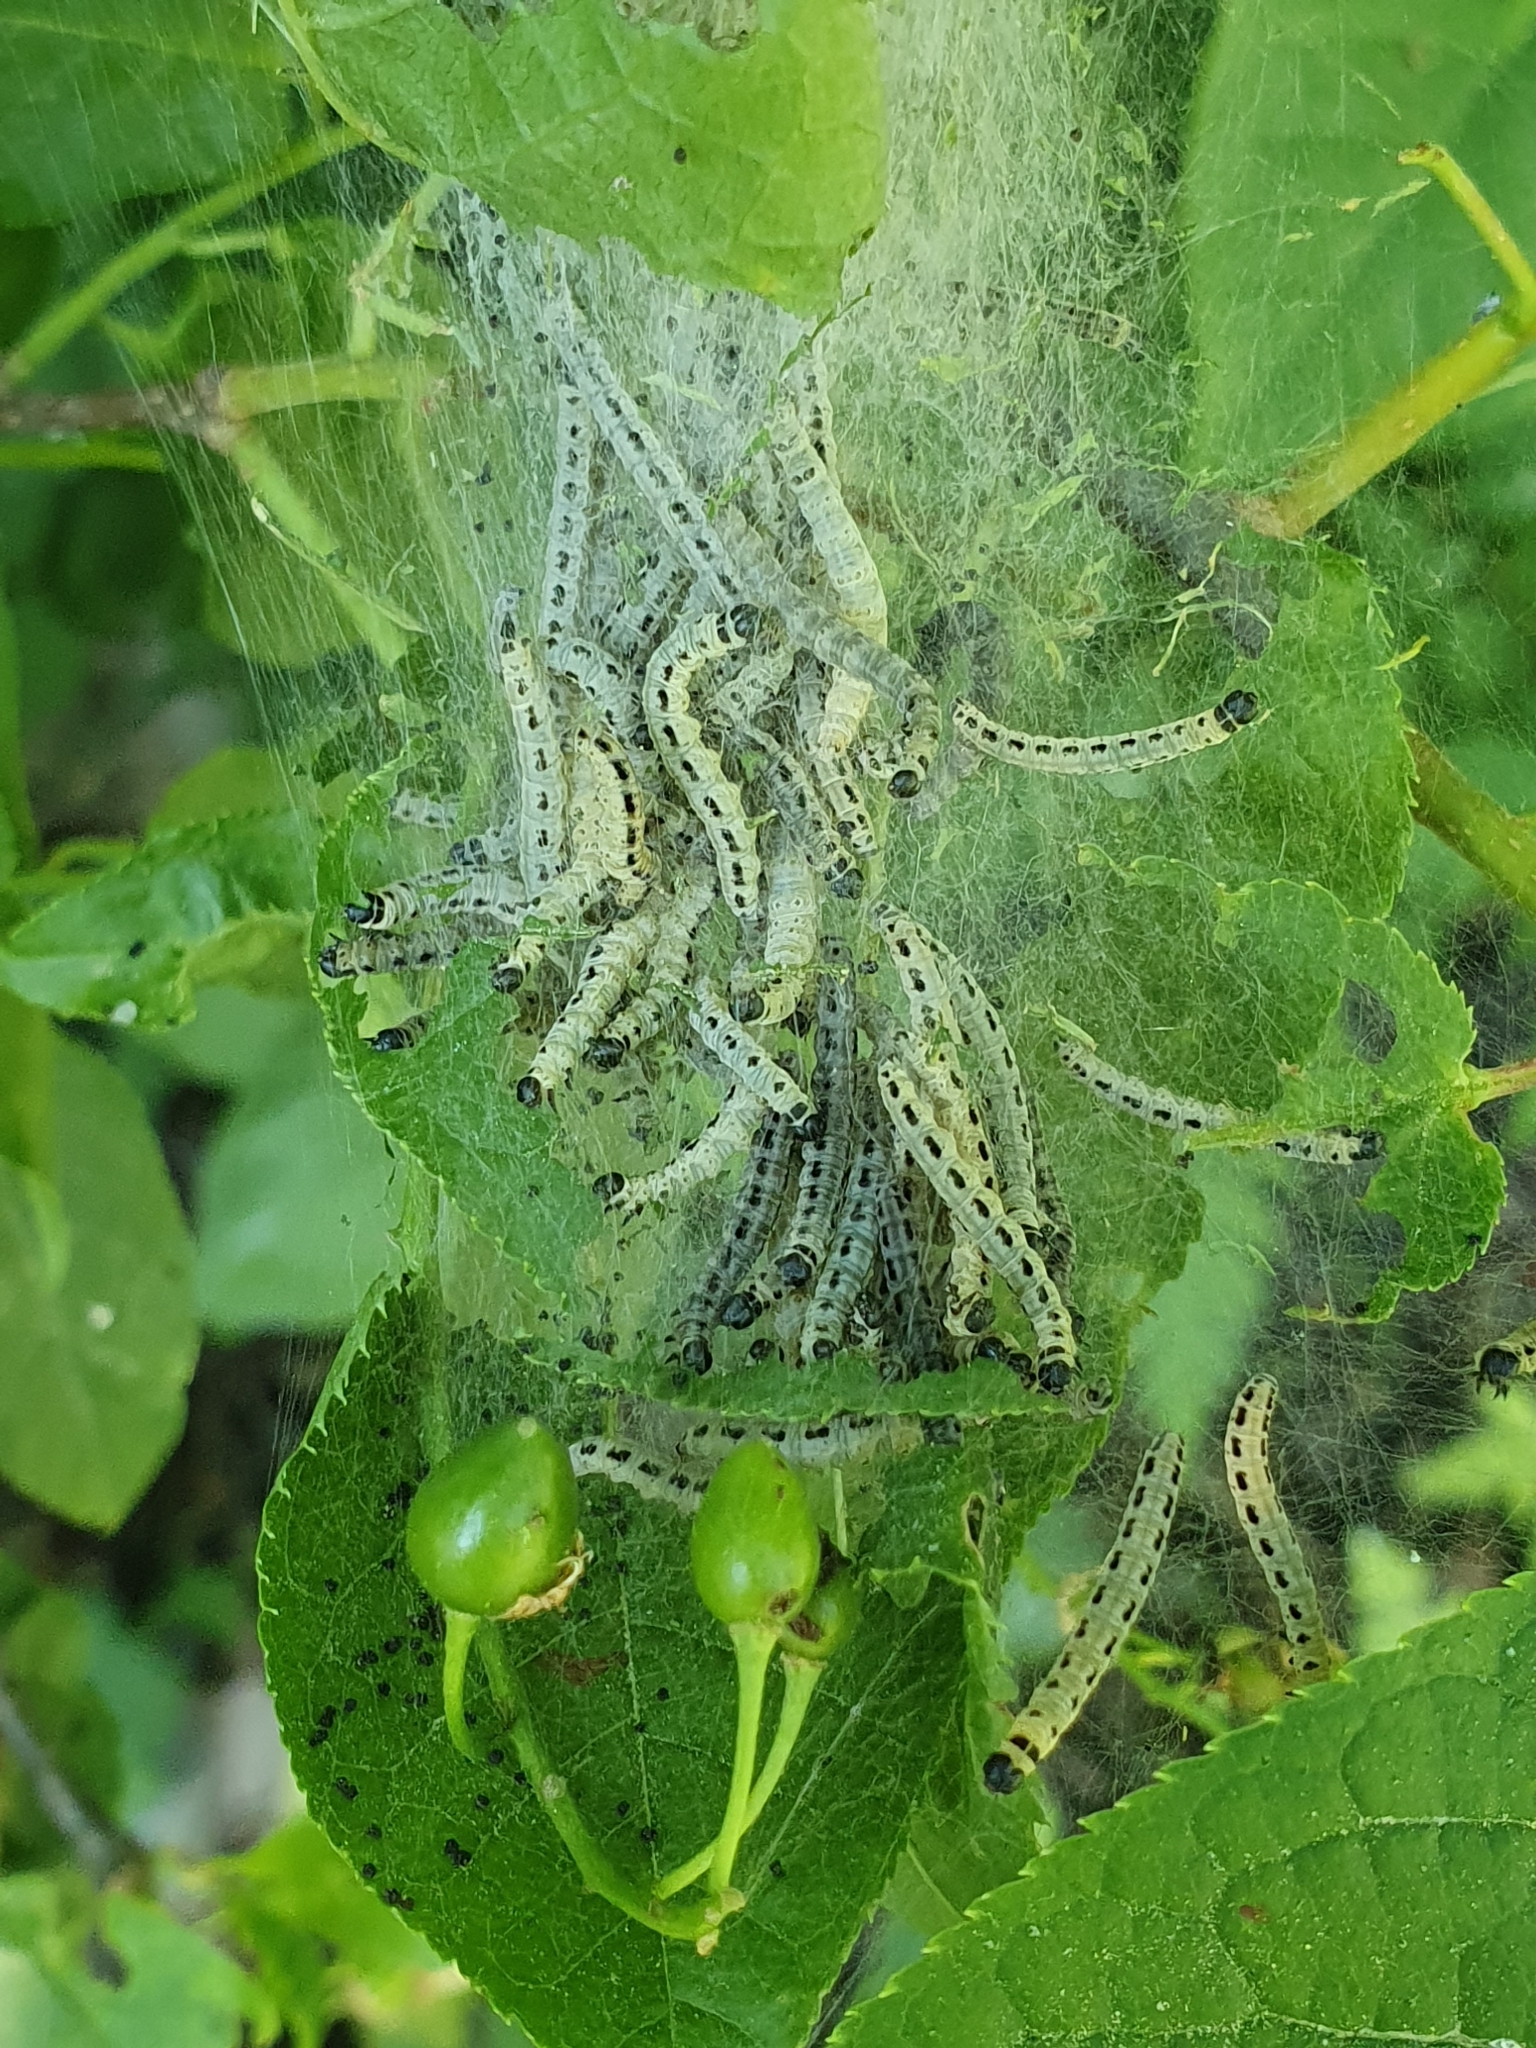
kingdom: Animalia
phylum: Arthropoda
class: Insecta
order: Lepidoptera
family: Yponomeutidae
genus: Yponomeuta
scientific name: Yponomeuta evonymella
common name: Bird-cherry ermine
